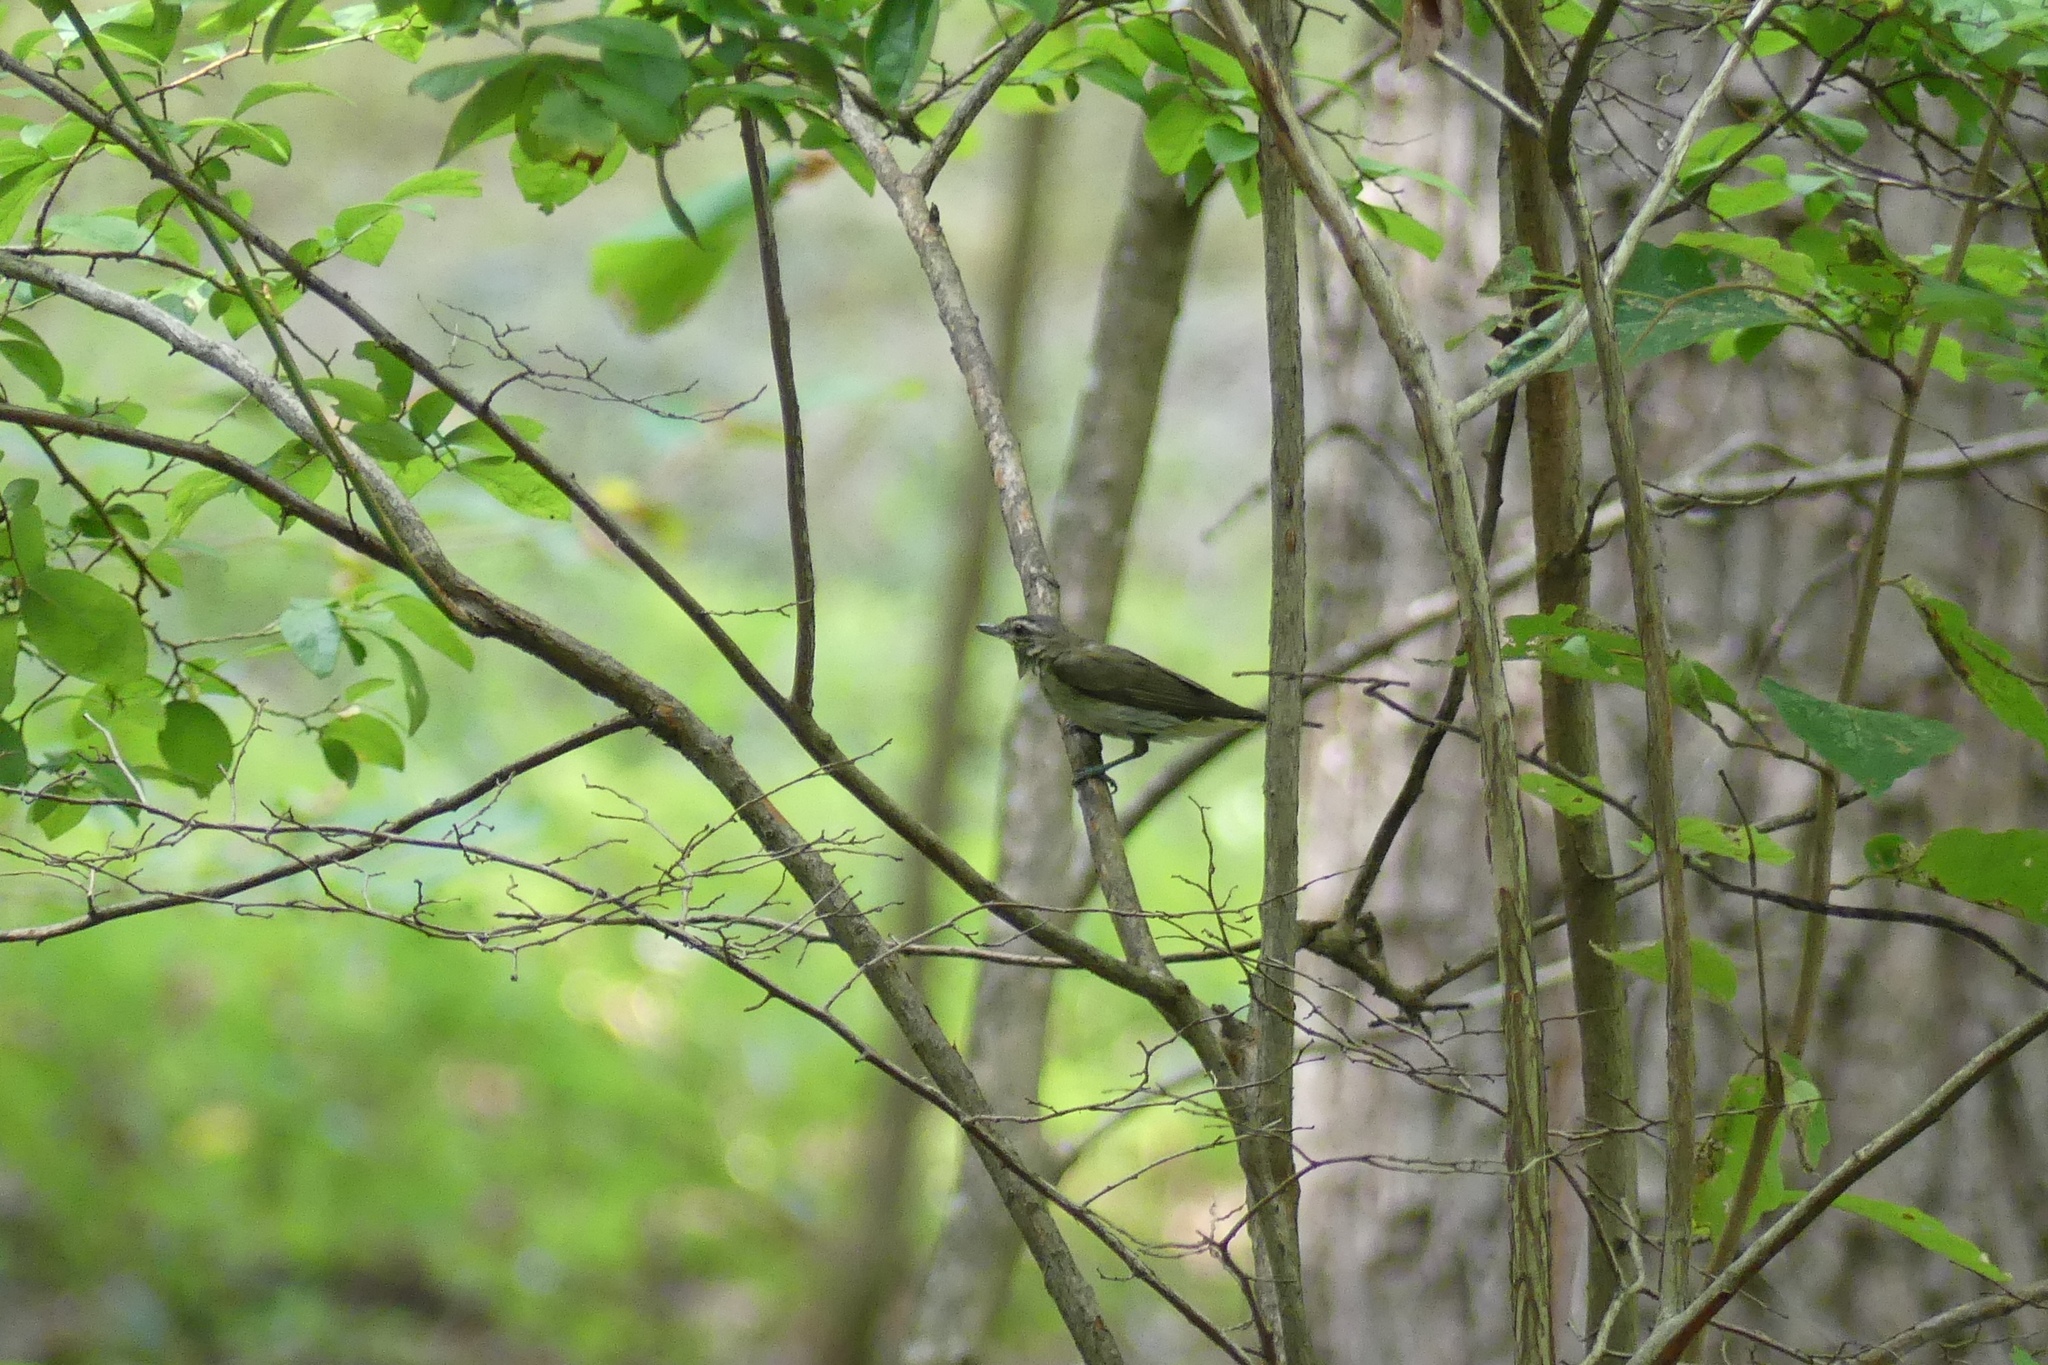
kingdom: Animalia
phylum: Chordata
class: Aves
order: Passeriformes
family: Vireonidae
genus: Vireo
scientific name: Vireo olivaceus
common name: Red-eyed vireo
